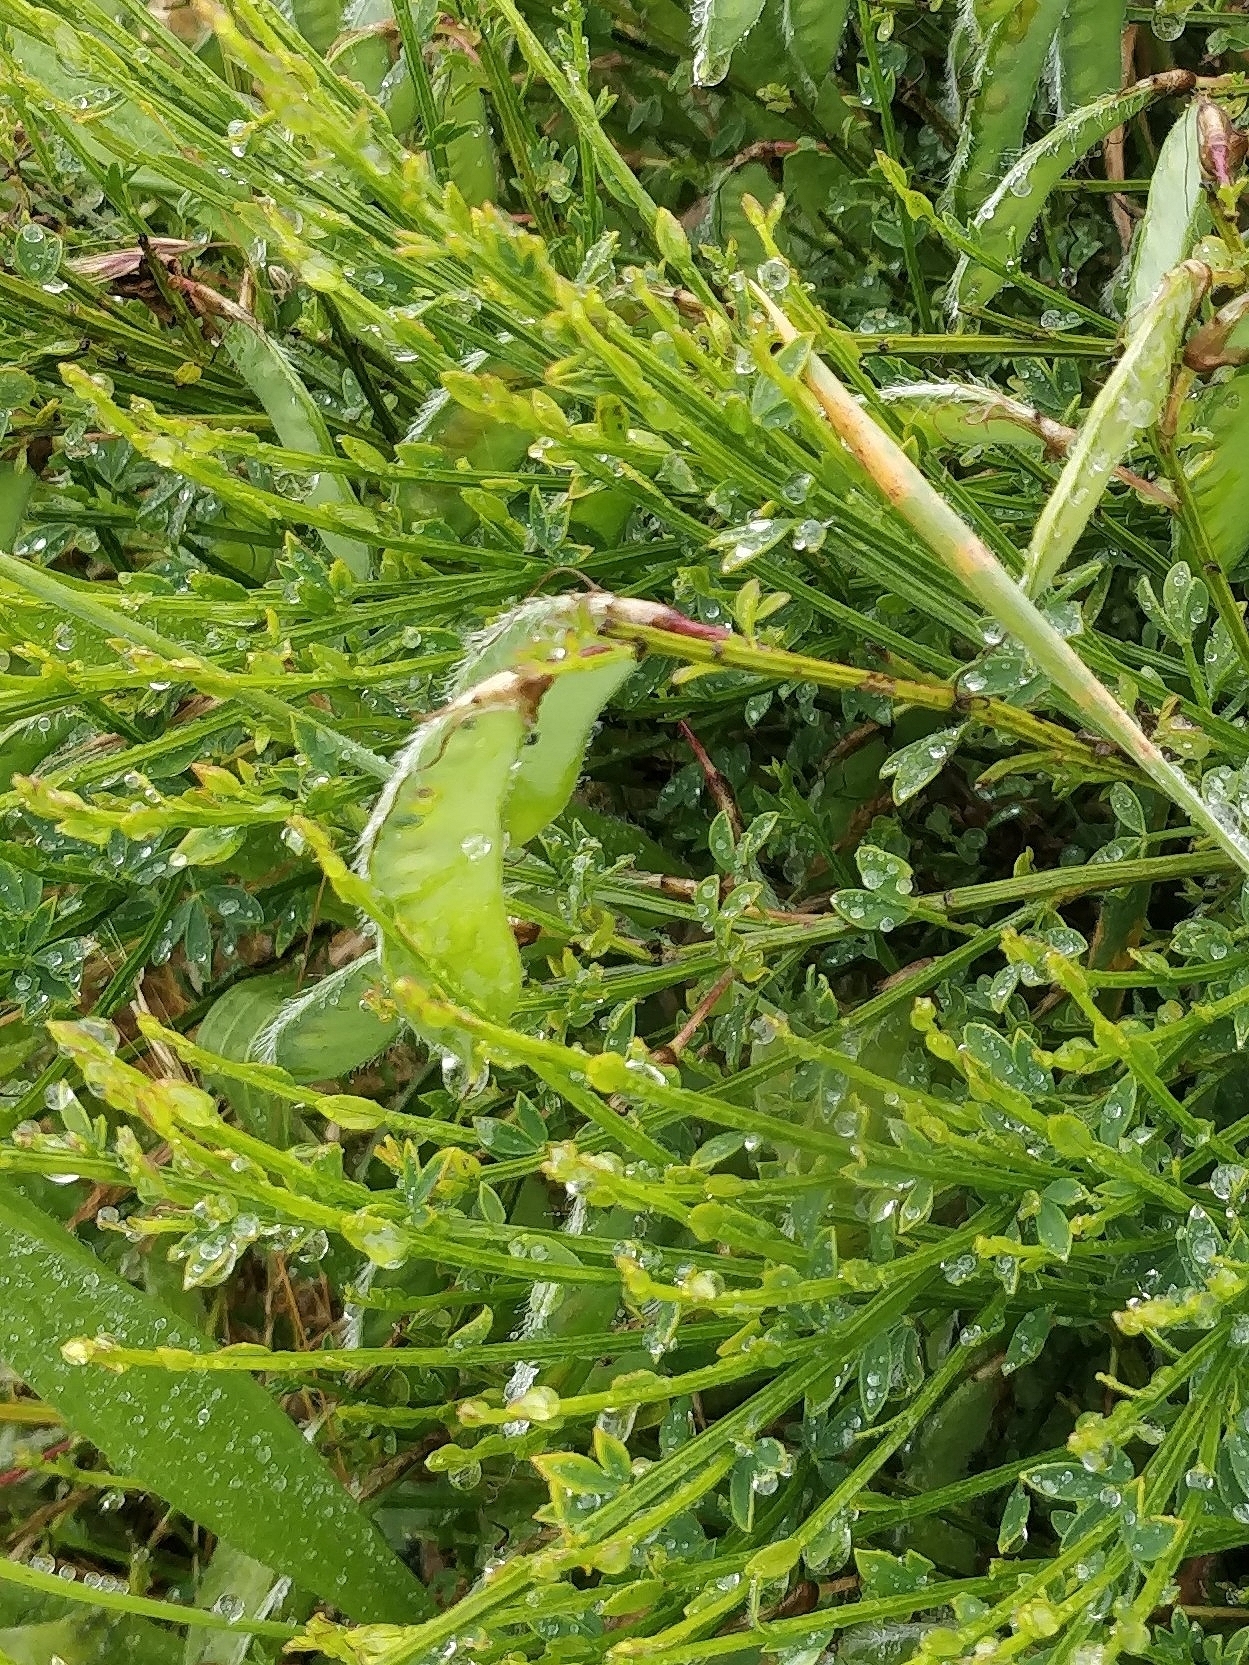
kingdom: Plantae
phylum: Tracheophyta
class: Magnoliopsida
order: Fabales
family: Fabaceae
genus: Cytisus
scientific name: Cytisus scoparius
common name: Scotch broom
